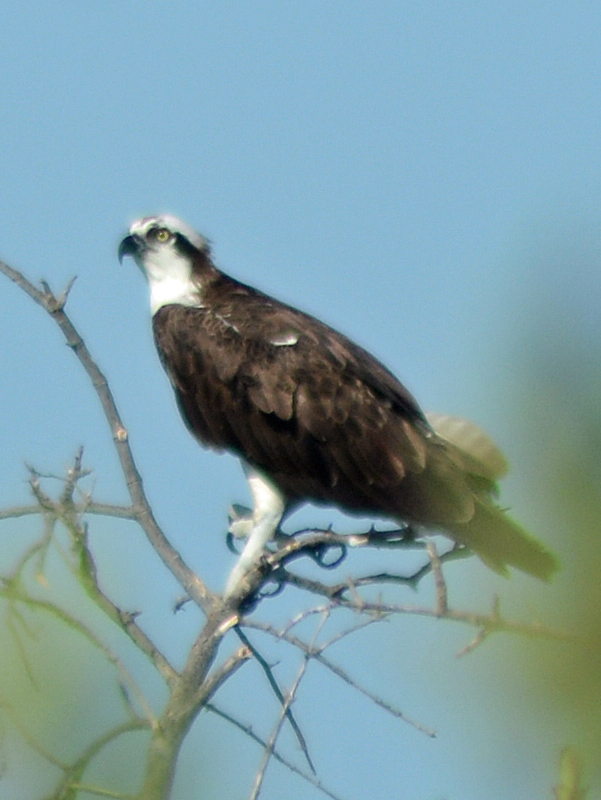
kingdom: Animalia
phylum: Chordata
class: Aves
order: Accipitriformes
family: Pandionidae
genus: Pandion
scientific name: Pandion haliaetus
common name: Osprey
